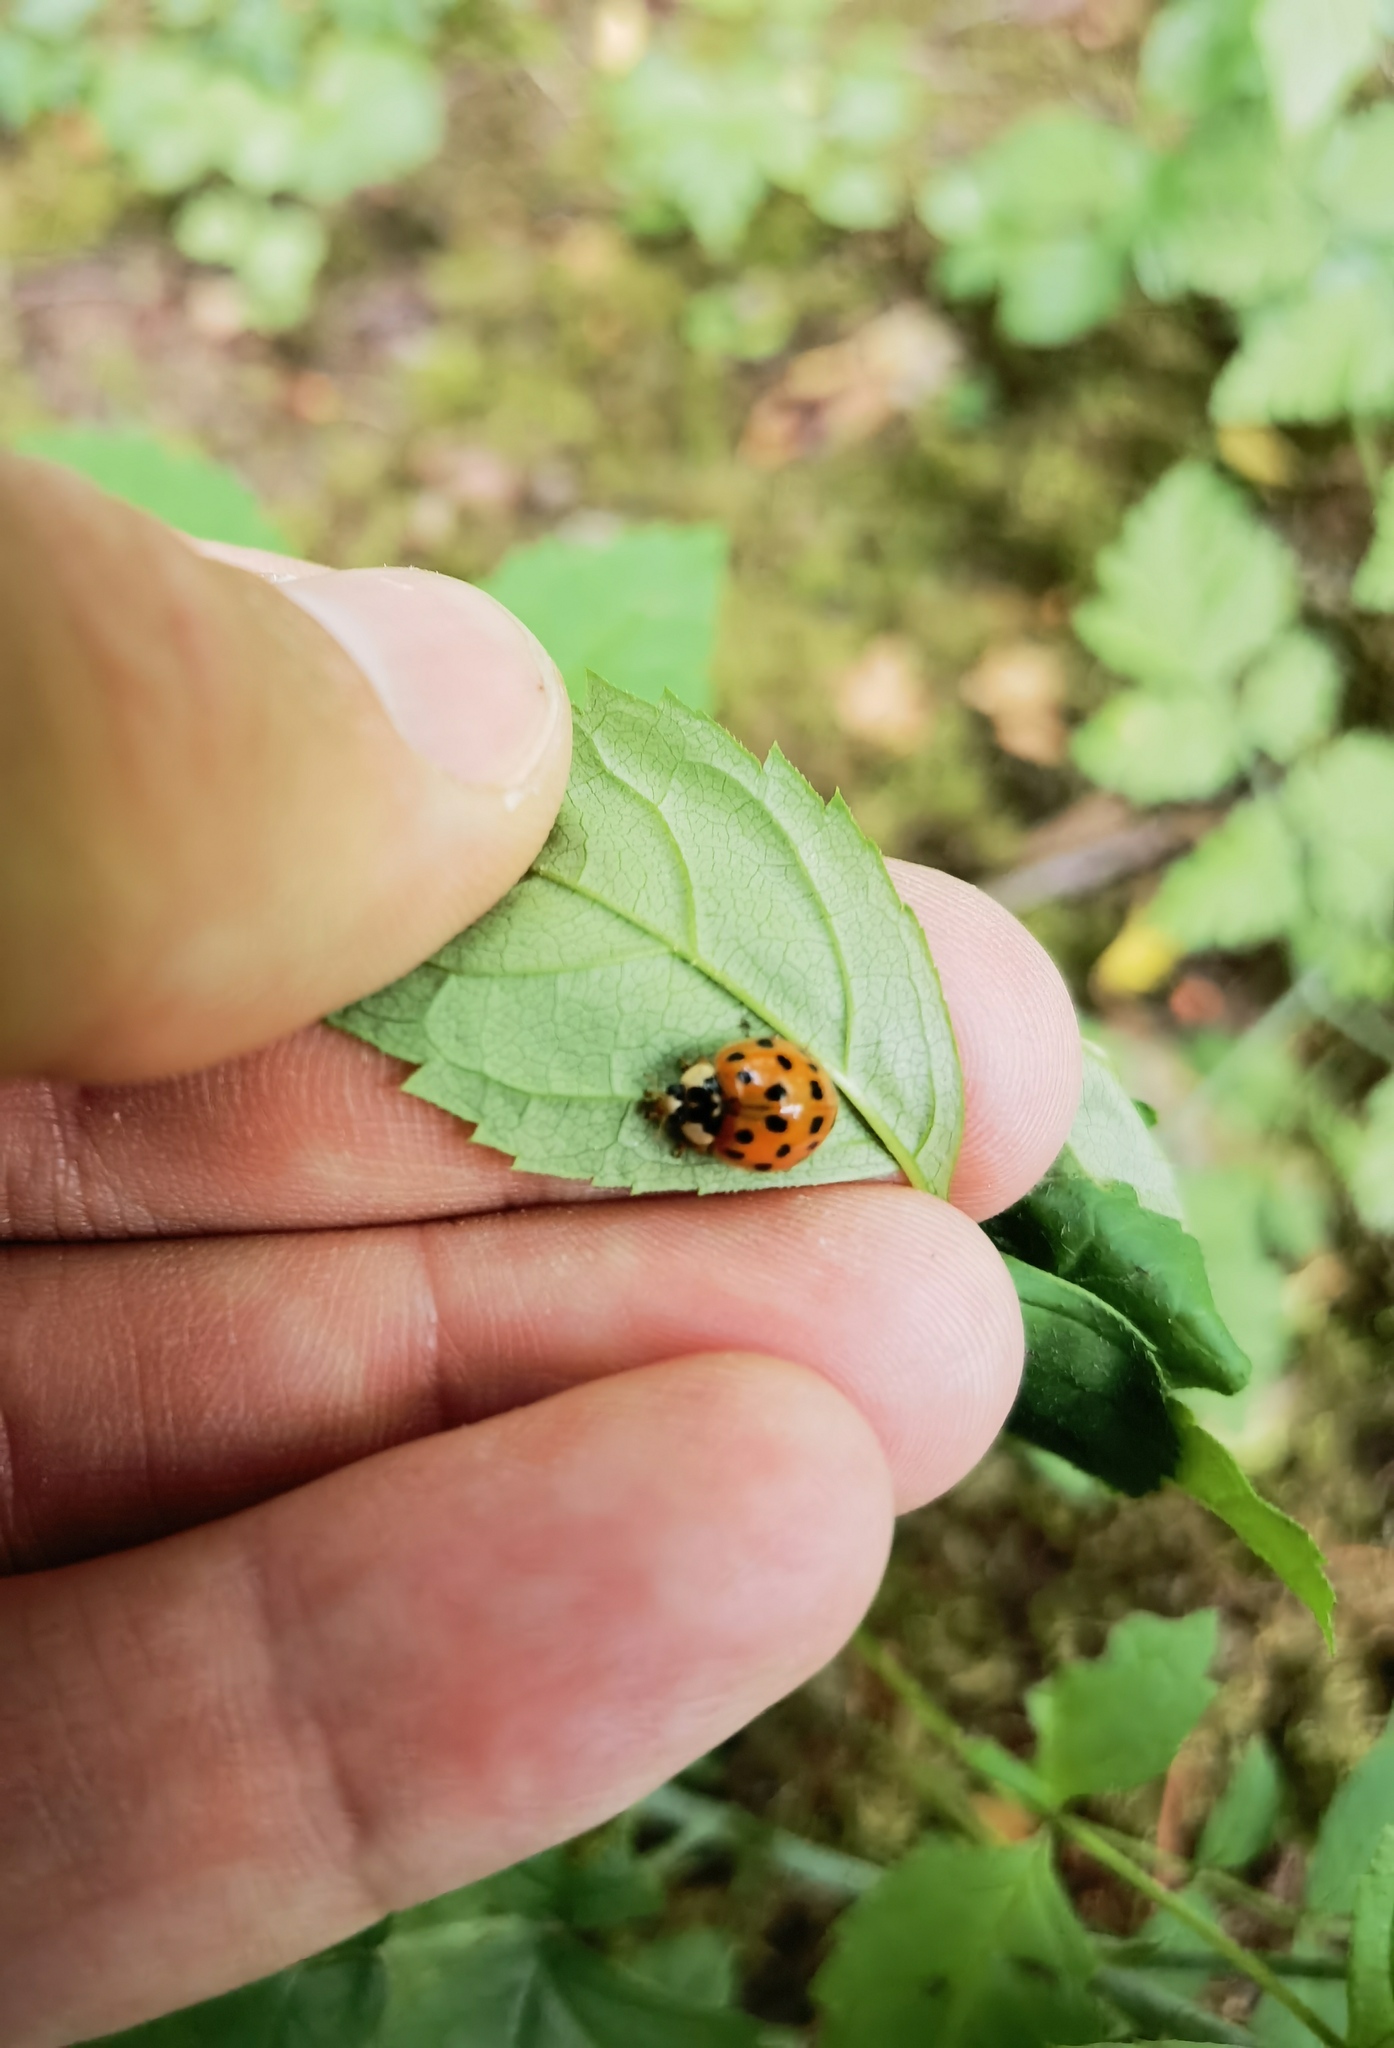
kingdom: Animalia
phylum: Arthropoda
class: Insecta
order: Coleoptera
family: Coccinellidae
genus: Harmonia
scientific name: Harmonia axyridis
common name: Harlequin ladybird
